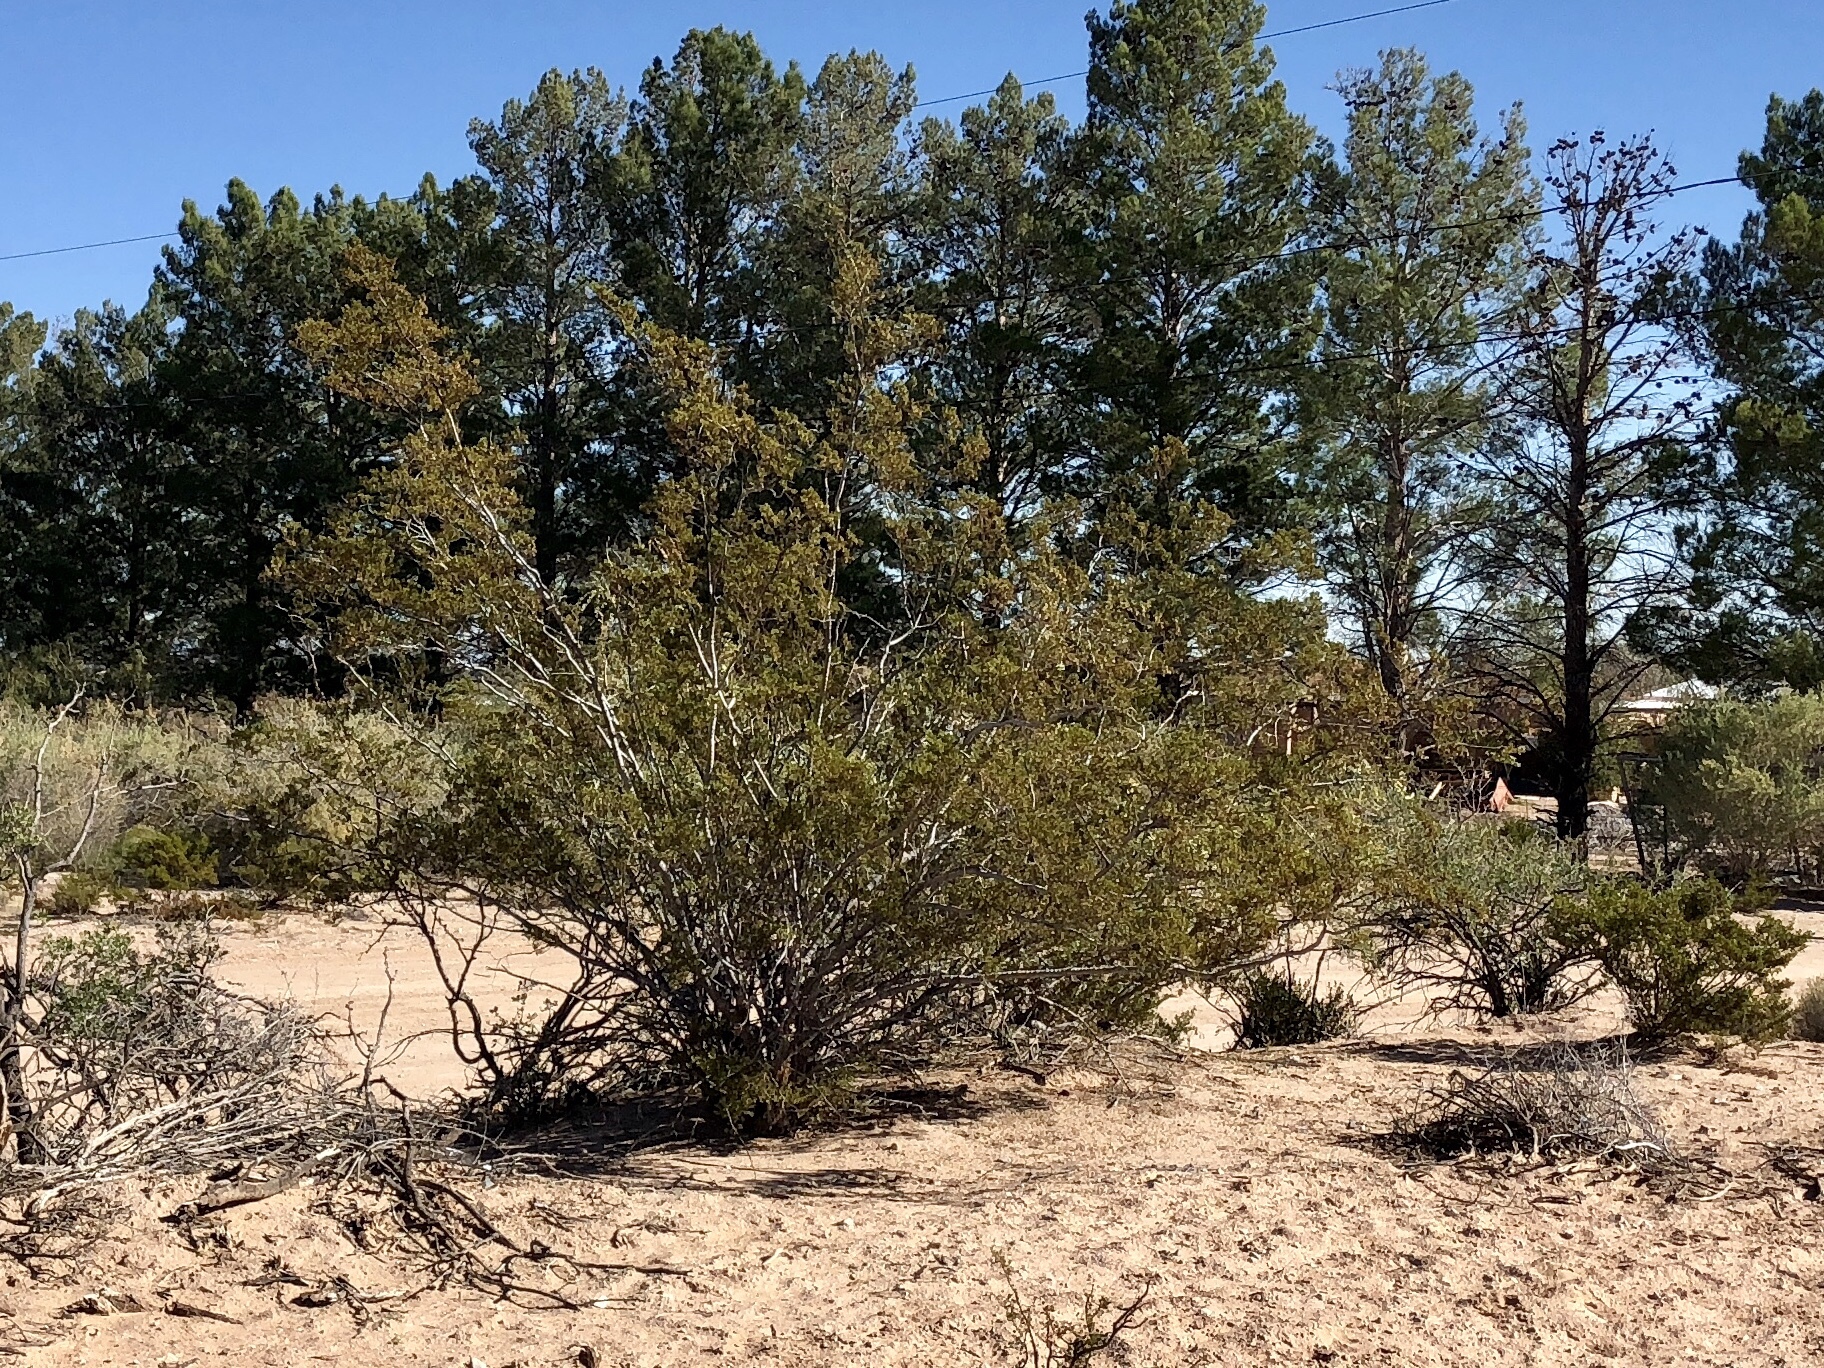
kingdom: Plantae
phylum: Tracheophyta
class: Magnoliopsida
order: Zygophyllales
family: Zygophyllaceae
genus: Larrea
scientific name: Larrea tridentata
